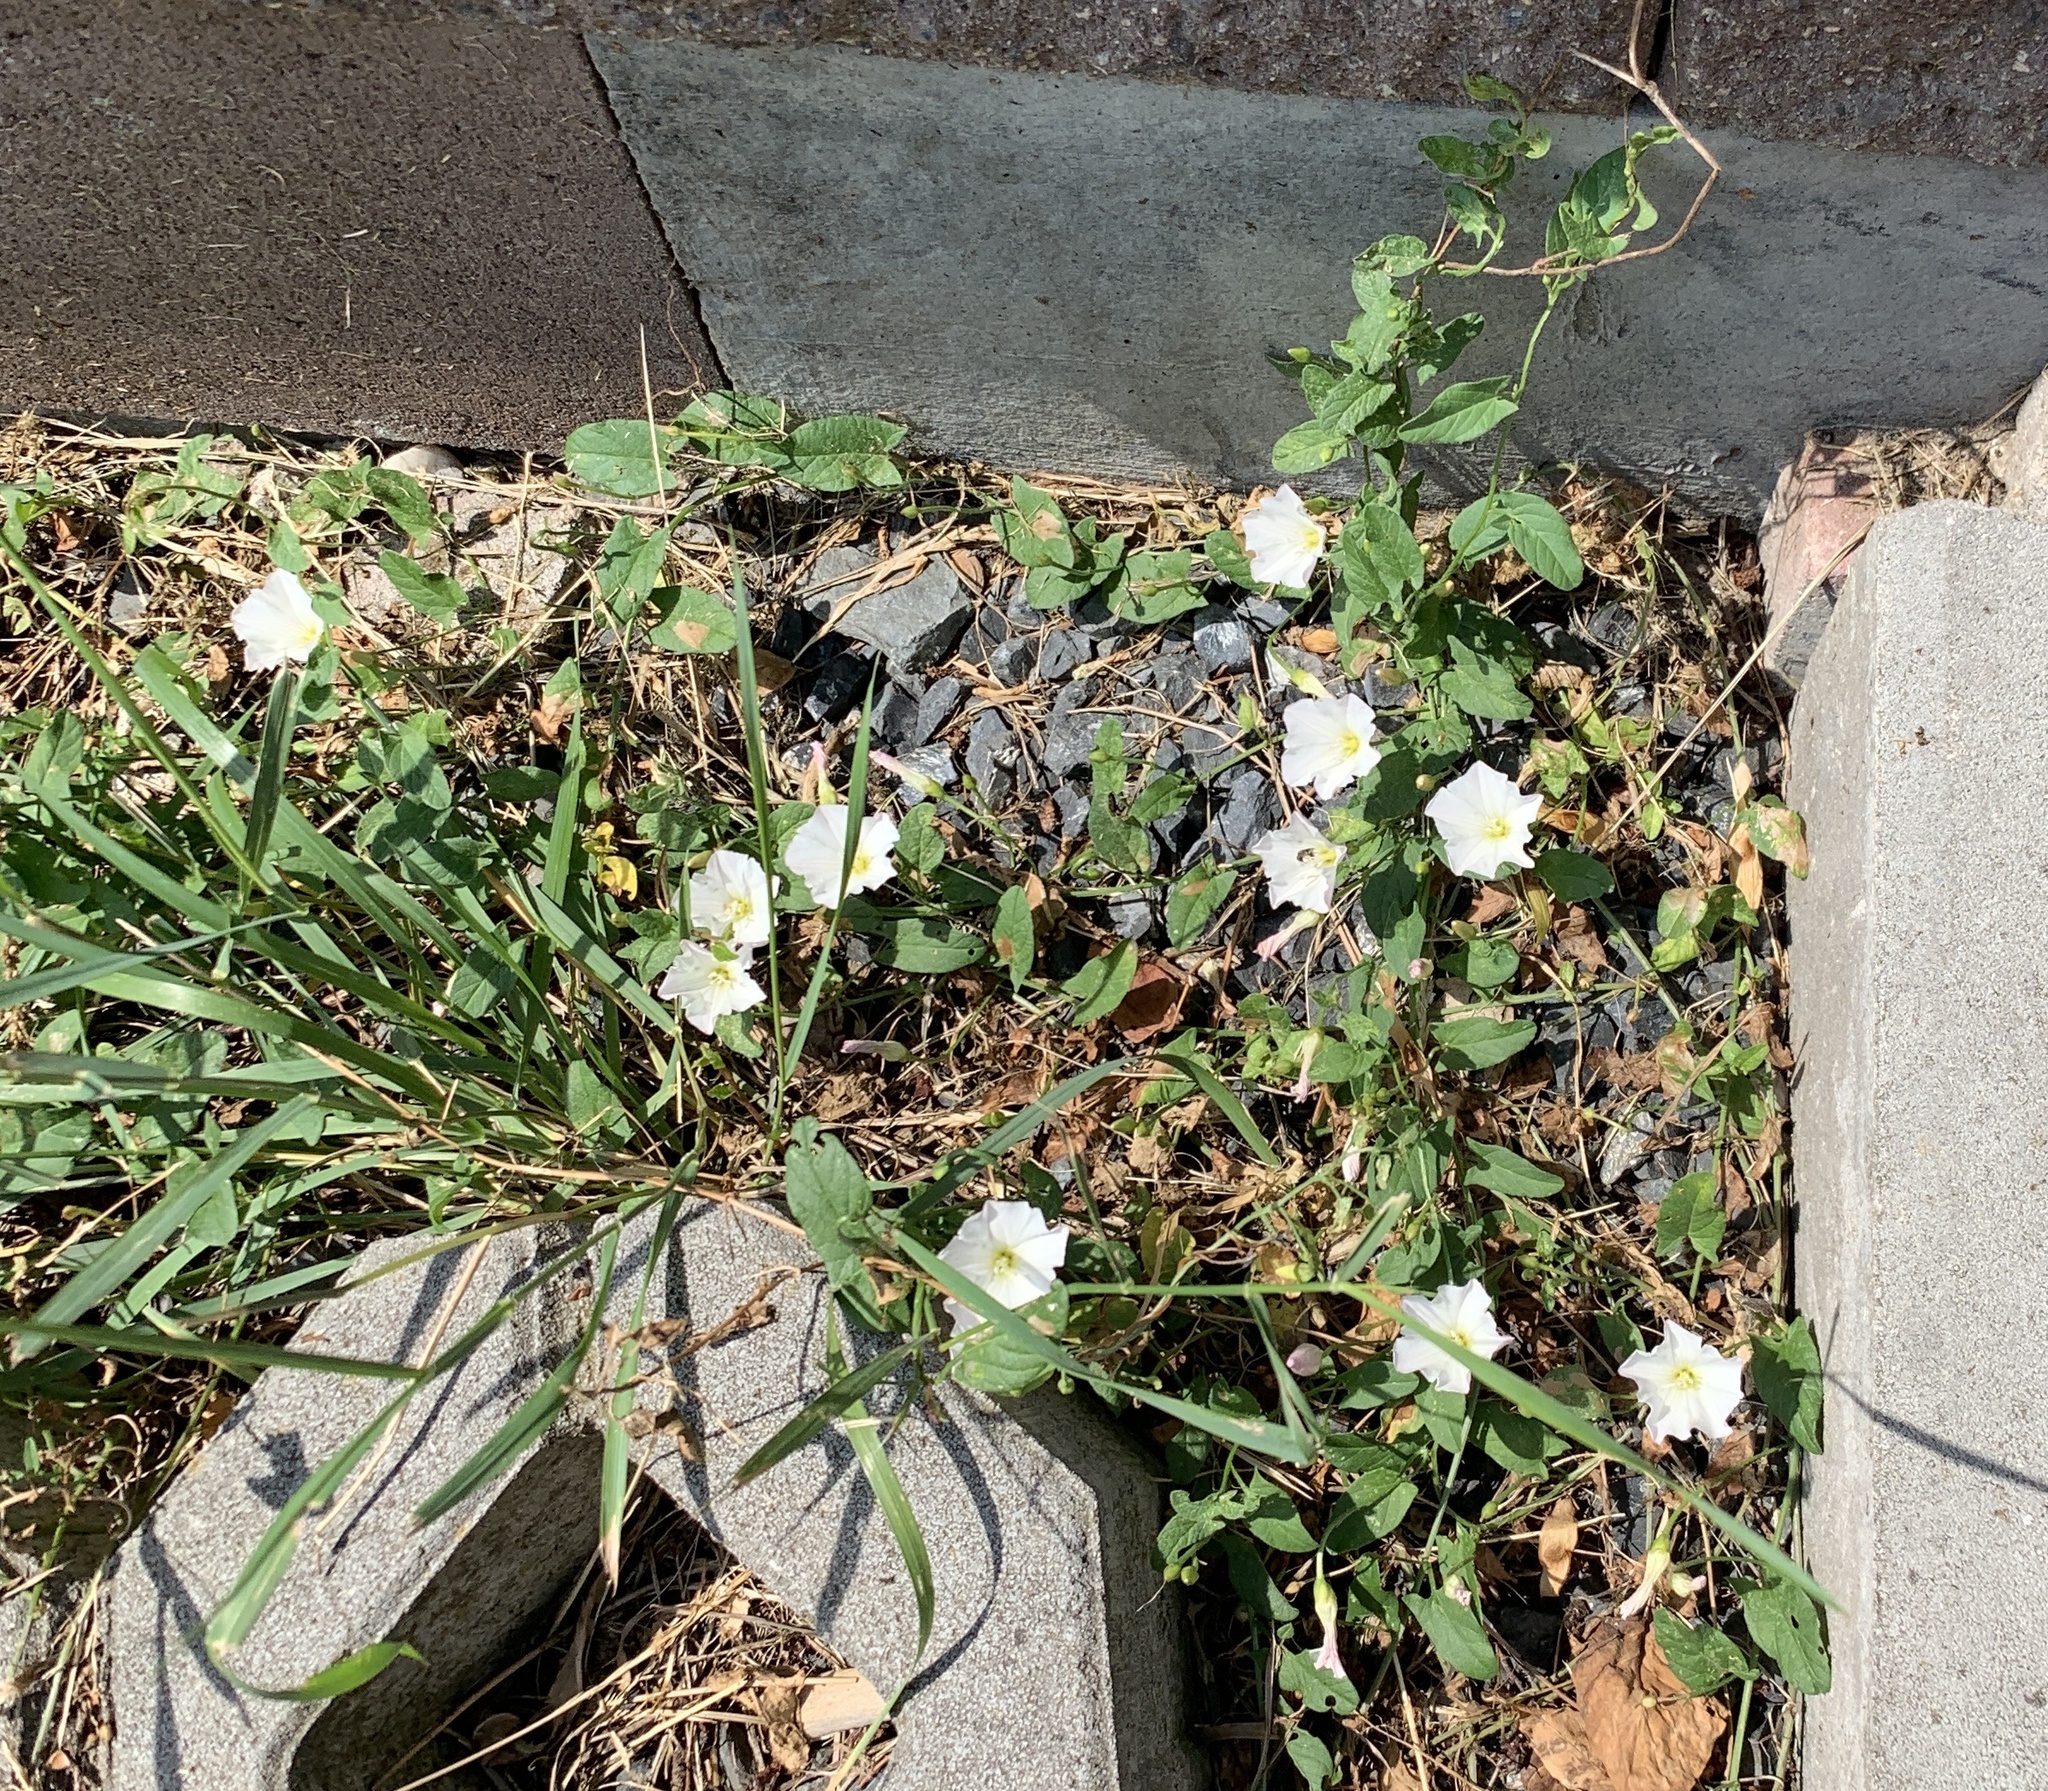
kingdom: Plantae
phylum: Tracheophyta
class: Magnoliopsida
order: Solanales
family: Convolvulaceae
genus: Convolvulus
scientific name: Convolvulus arvensis
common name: Field bindweed
